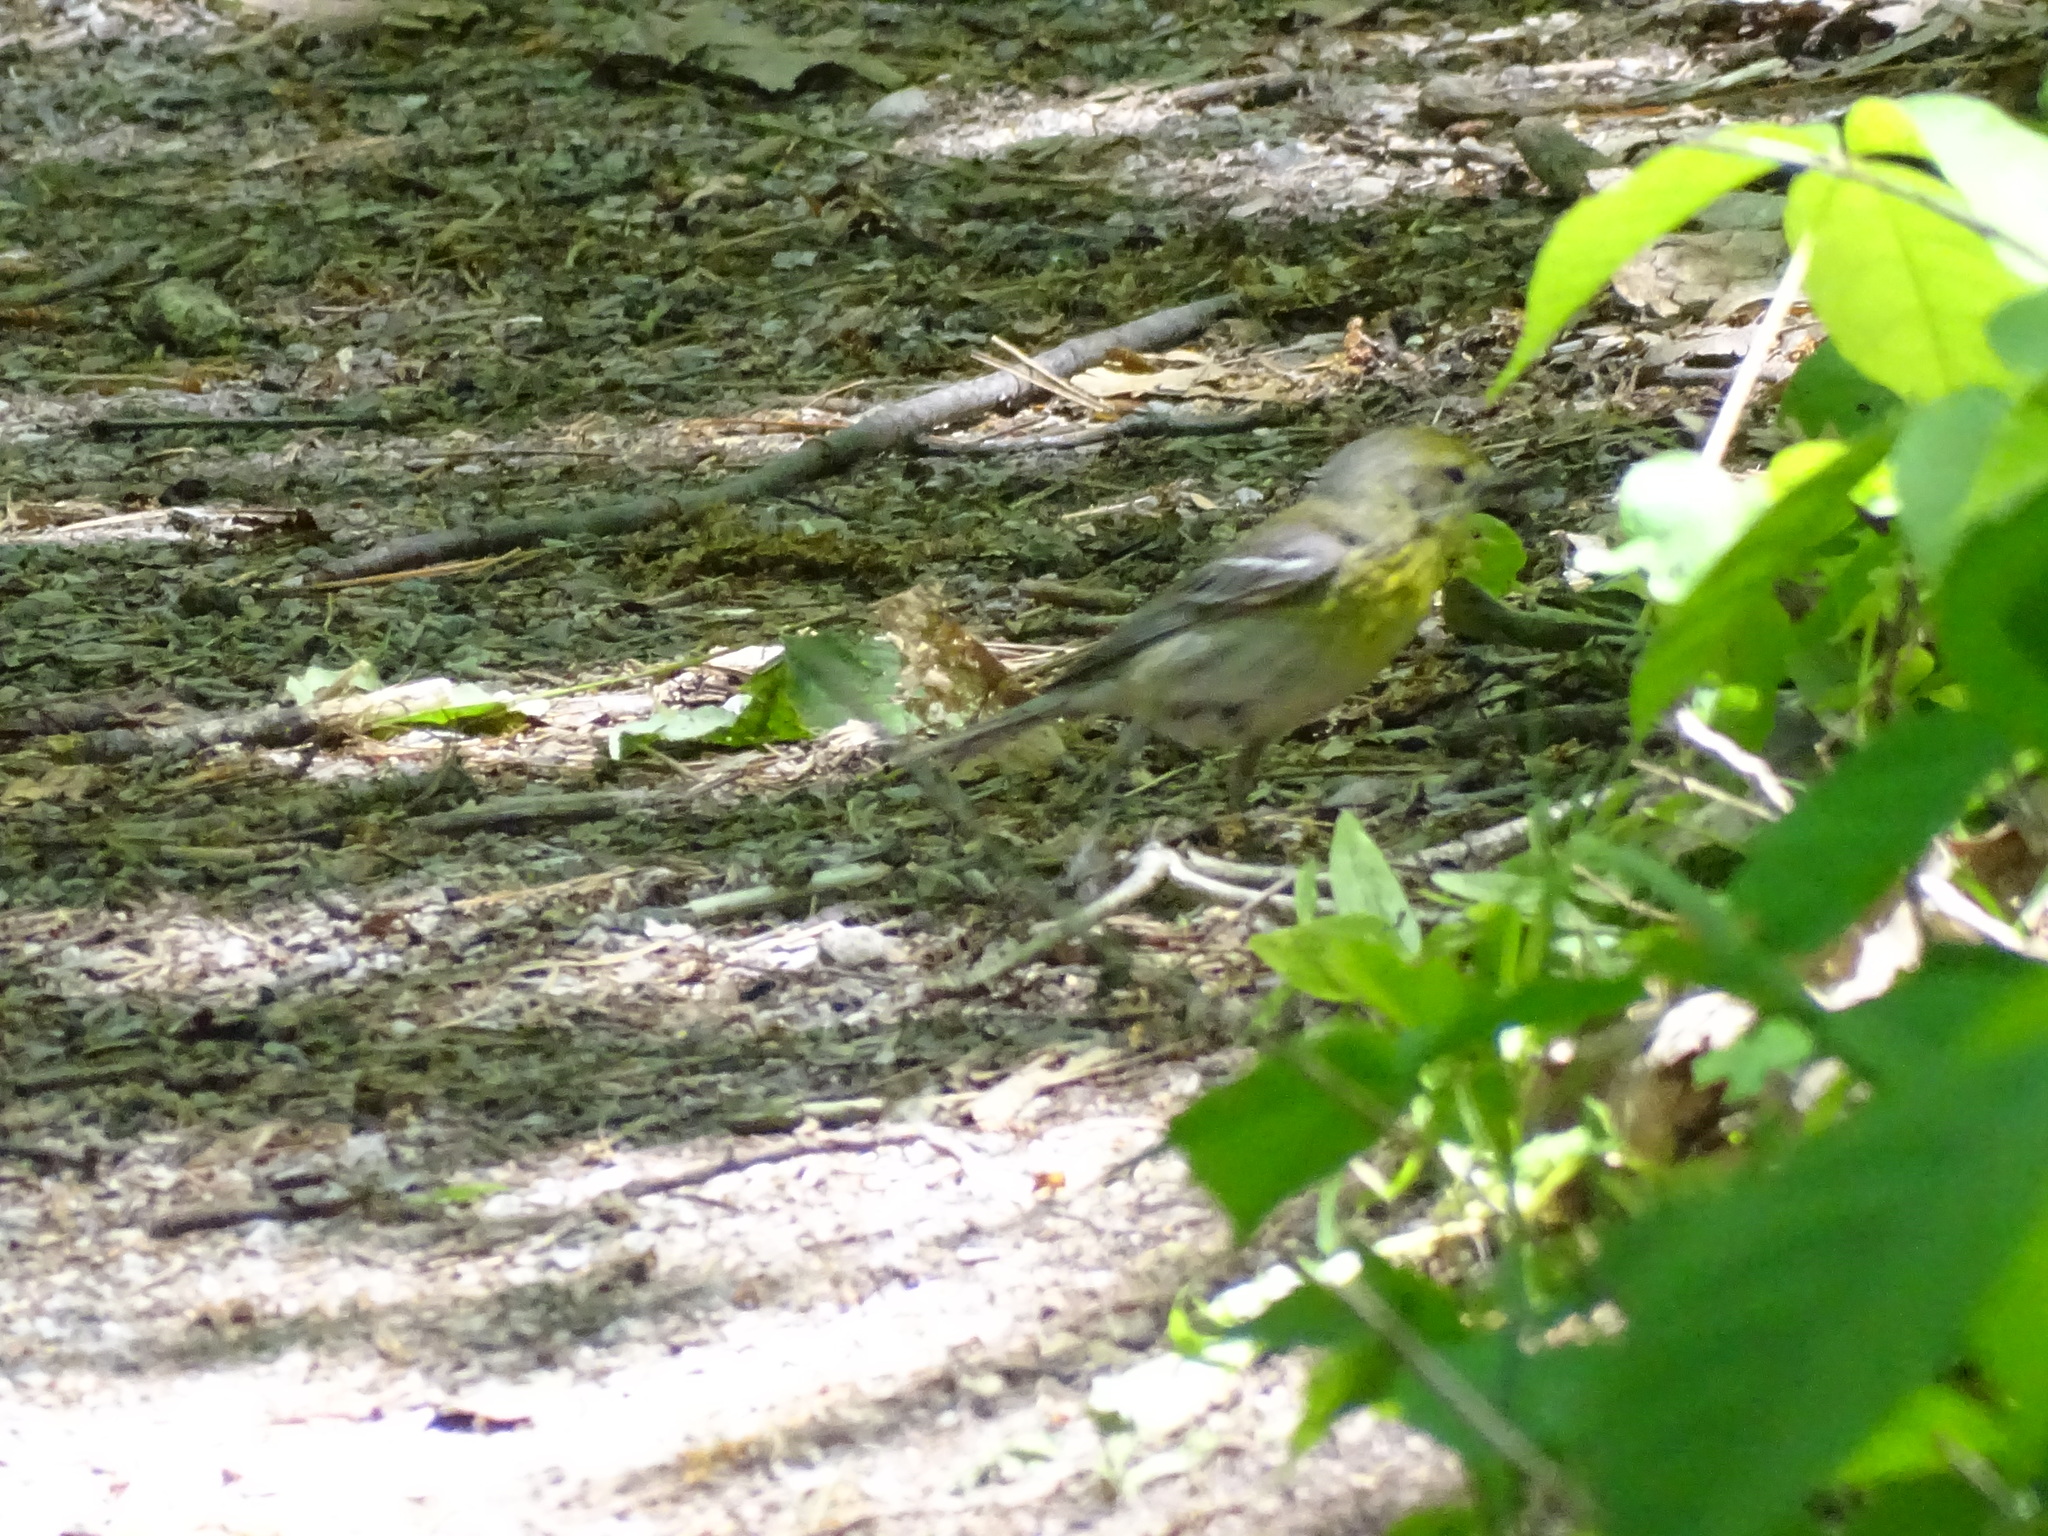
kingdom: Animalia
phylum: Chordata
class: Aves
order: Passeriformes
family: Parulidae
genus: Setophaga
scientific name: Setophaga pinus
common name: Pine warbler
